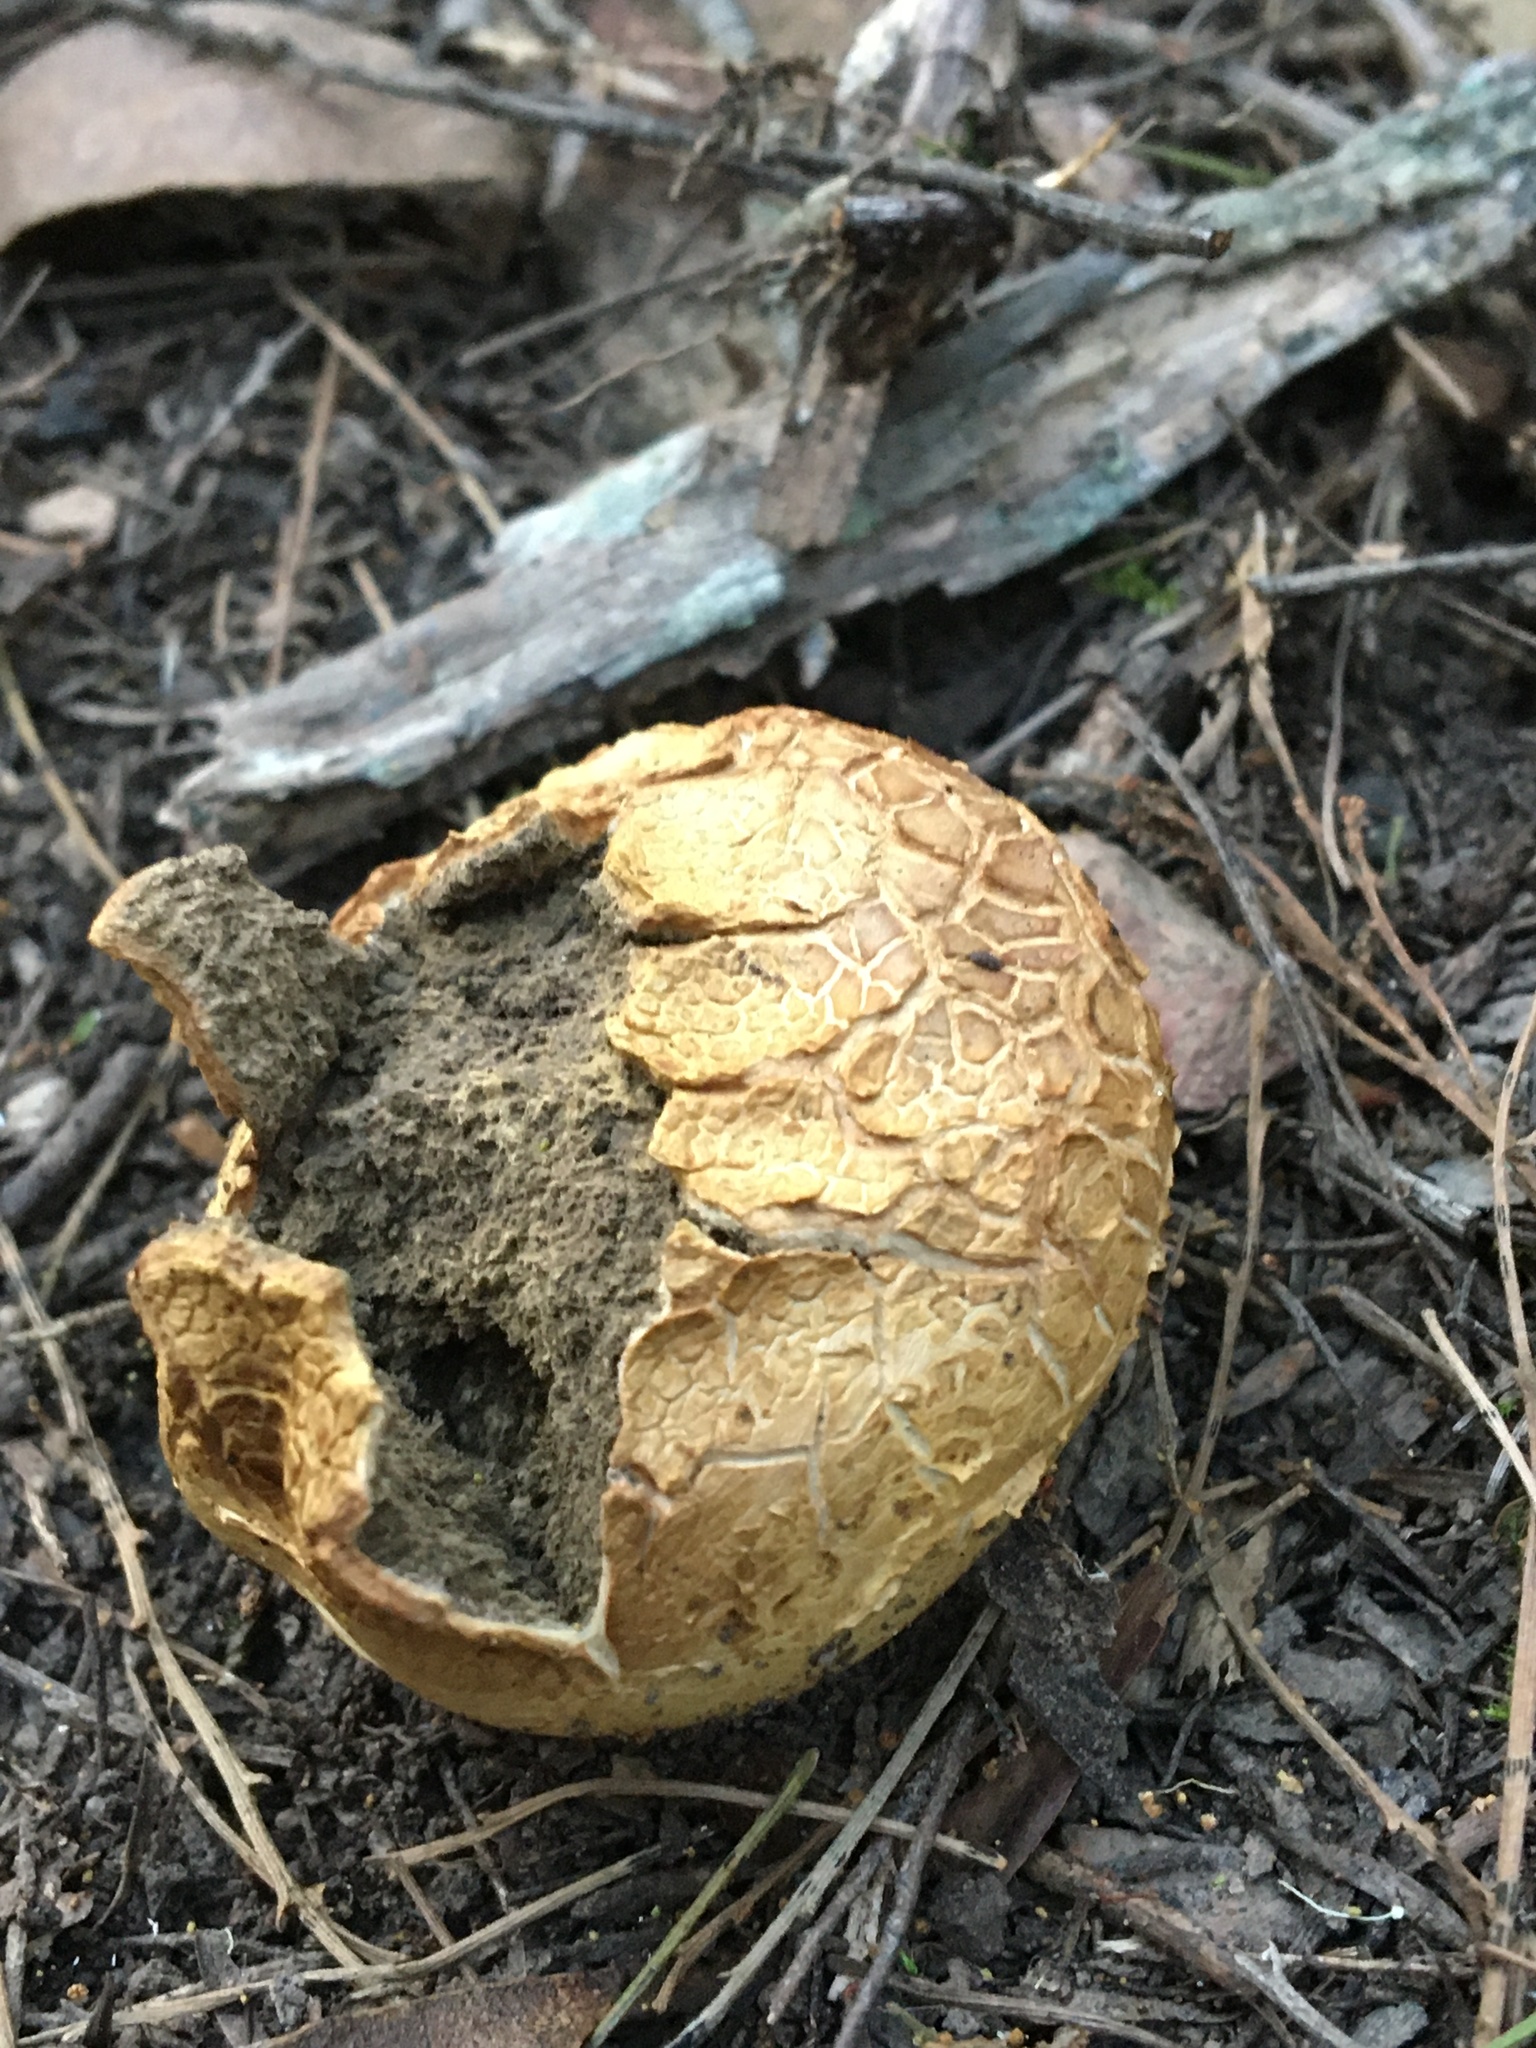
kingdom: Fungi
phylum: Basidiomycota
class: Agaricomycetes
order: Boletales
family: Sclerodermataceae
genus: Scleroderma
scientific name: Scleroderma cepa
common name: Onion earthball
